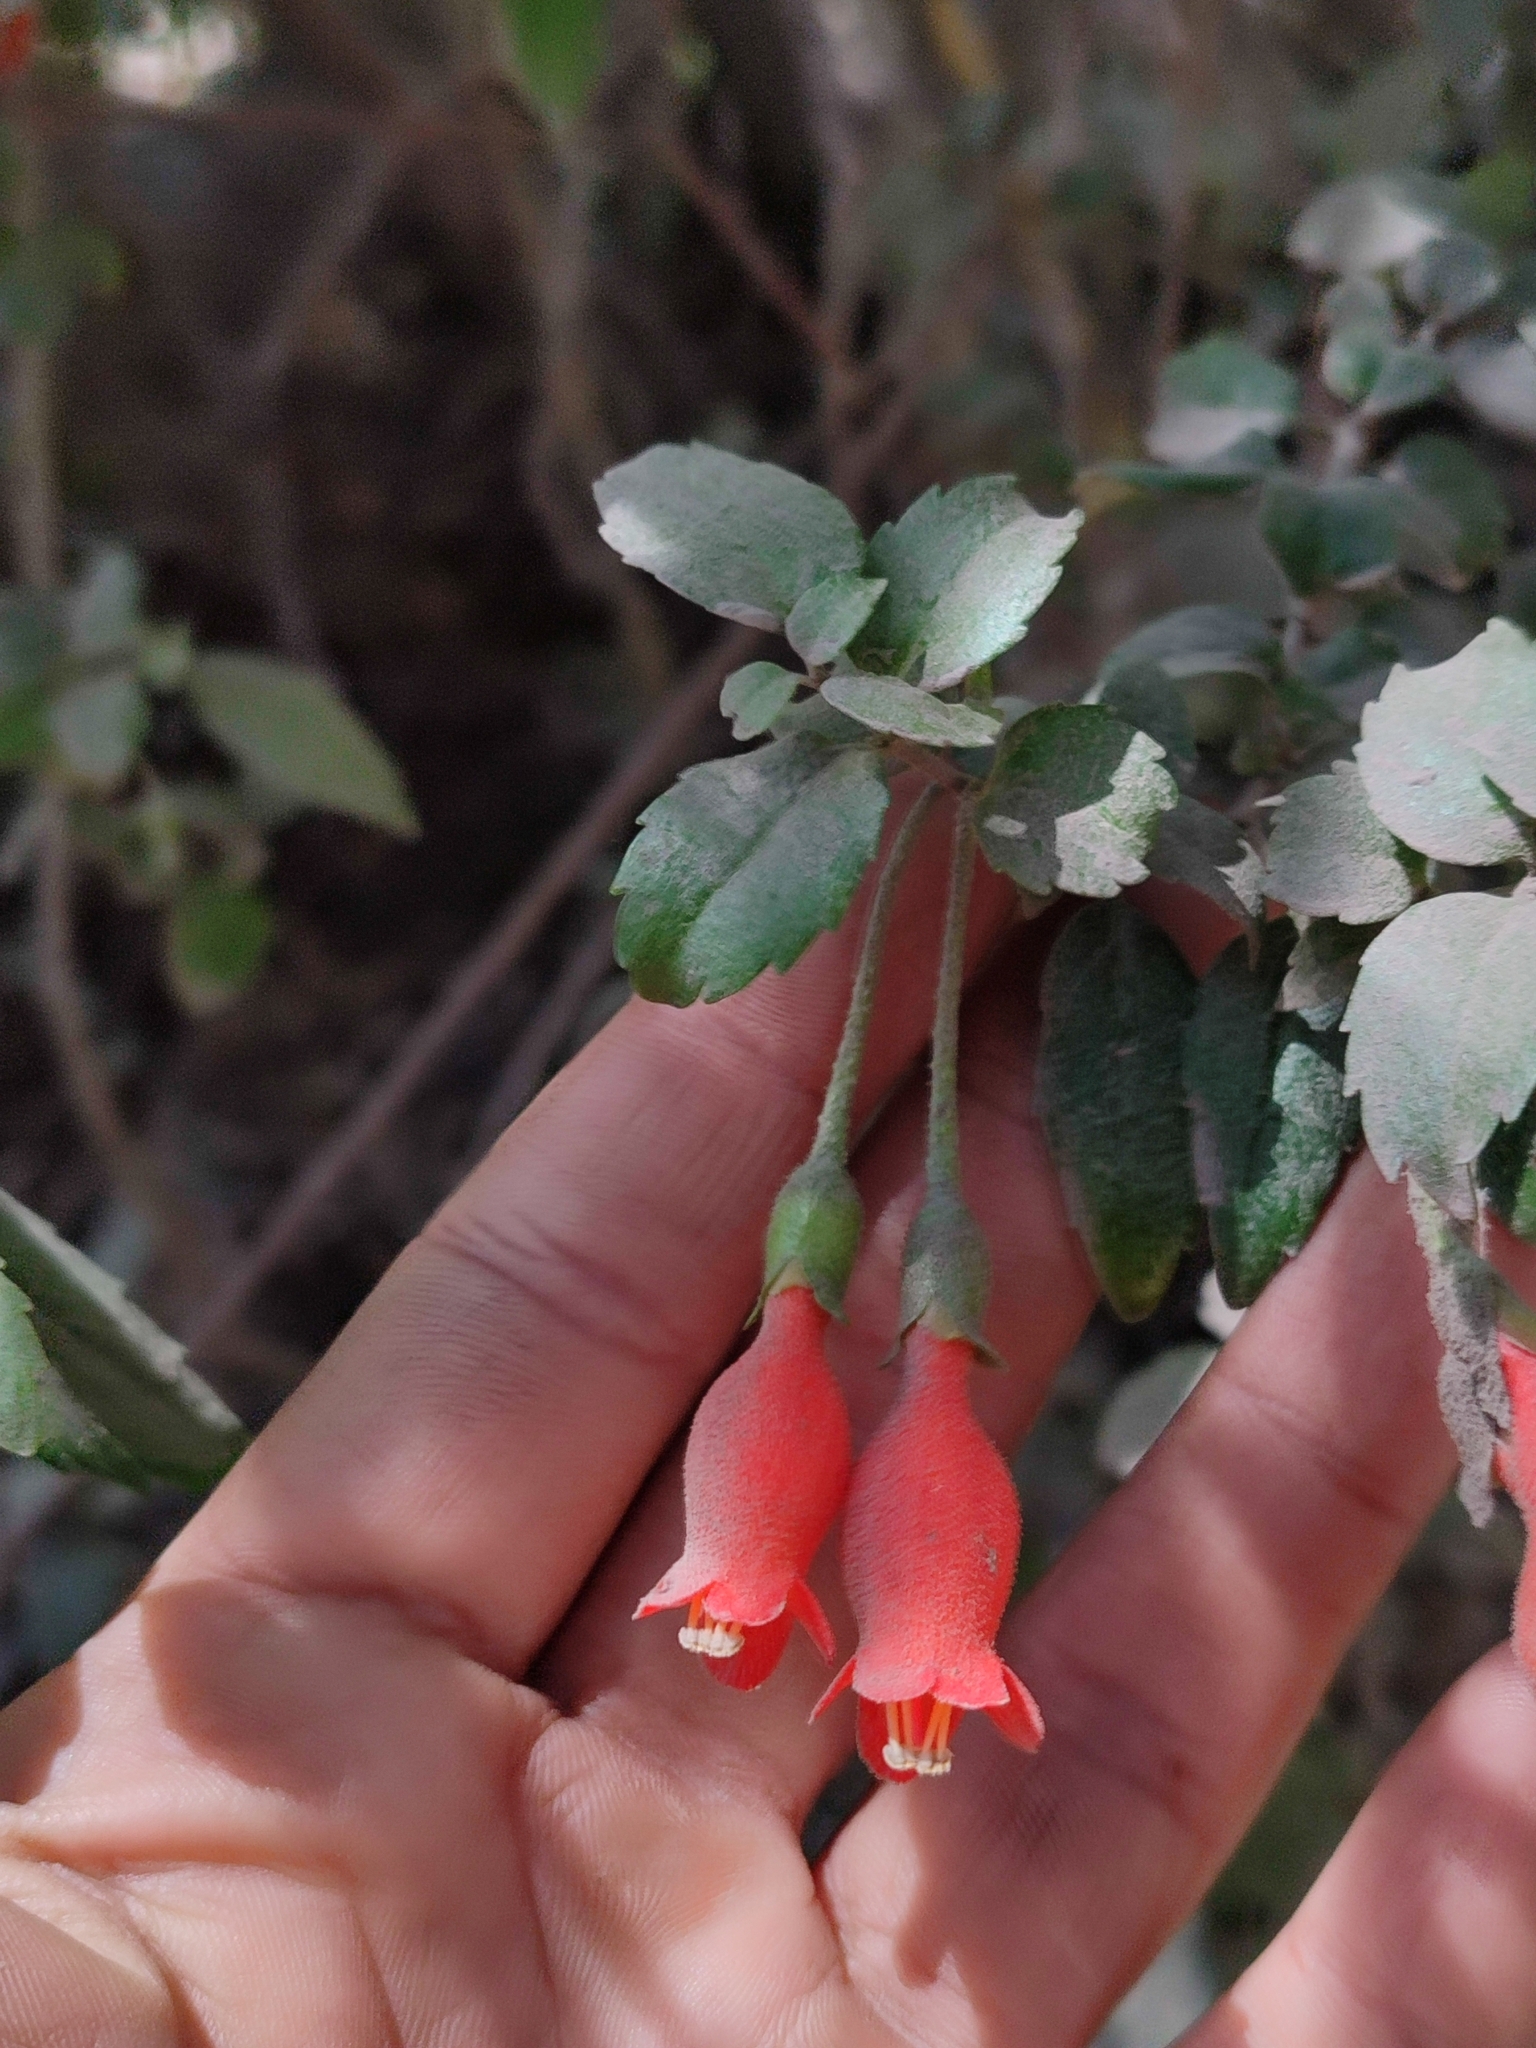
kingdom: Plantae
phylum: Tracheophyta
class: Magnoliopsida
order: Lamiales
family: Gesneriaceae
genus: Mitraria
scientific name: Mitraria coccinea
